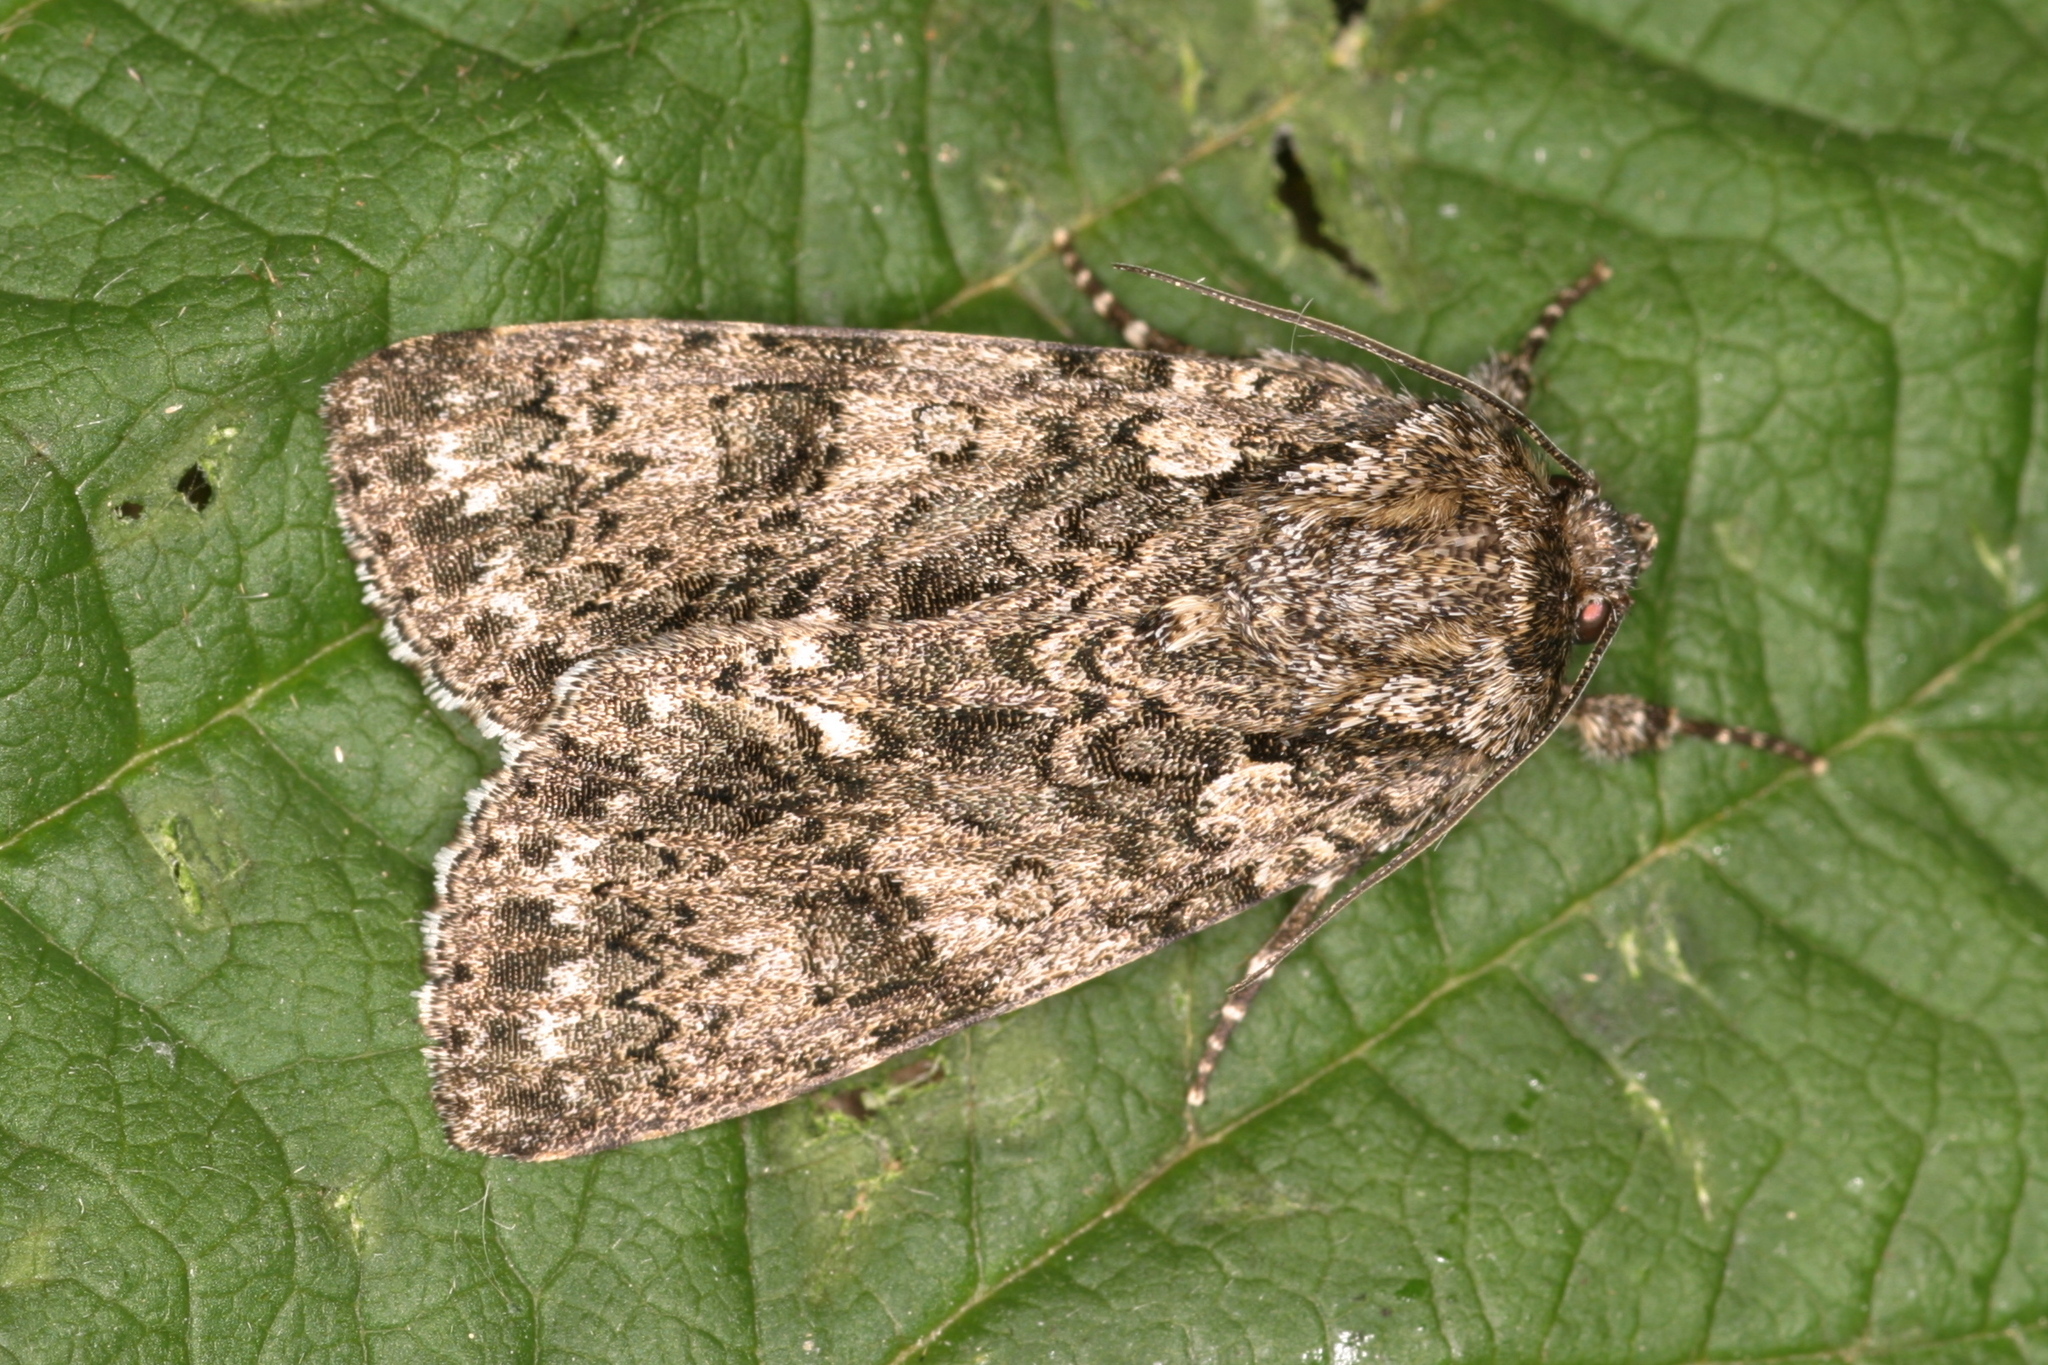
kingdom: Animalia
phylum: Arthropoda
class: Insecta
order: Lepidoptera
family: Noctuidae
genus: Acronicta
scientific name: Acronicta rumicis
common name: Knot grass
